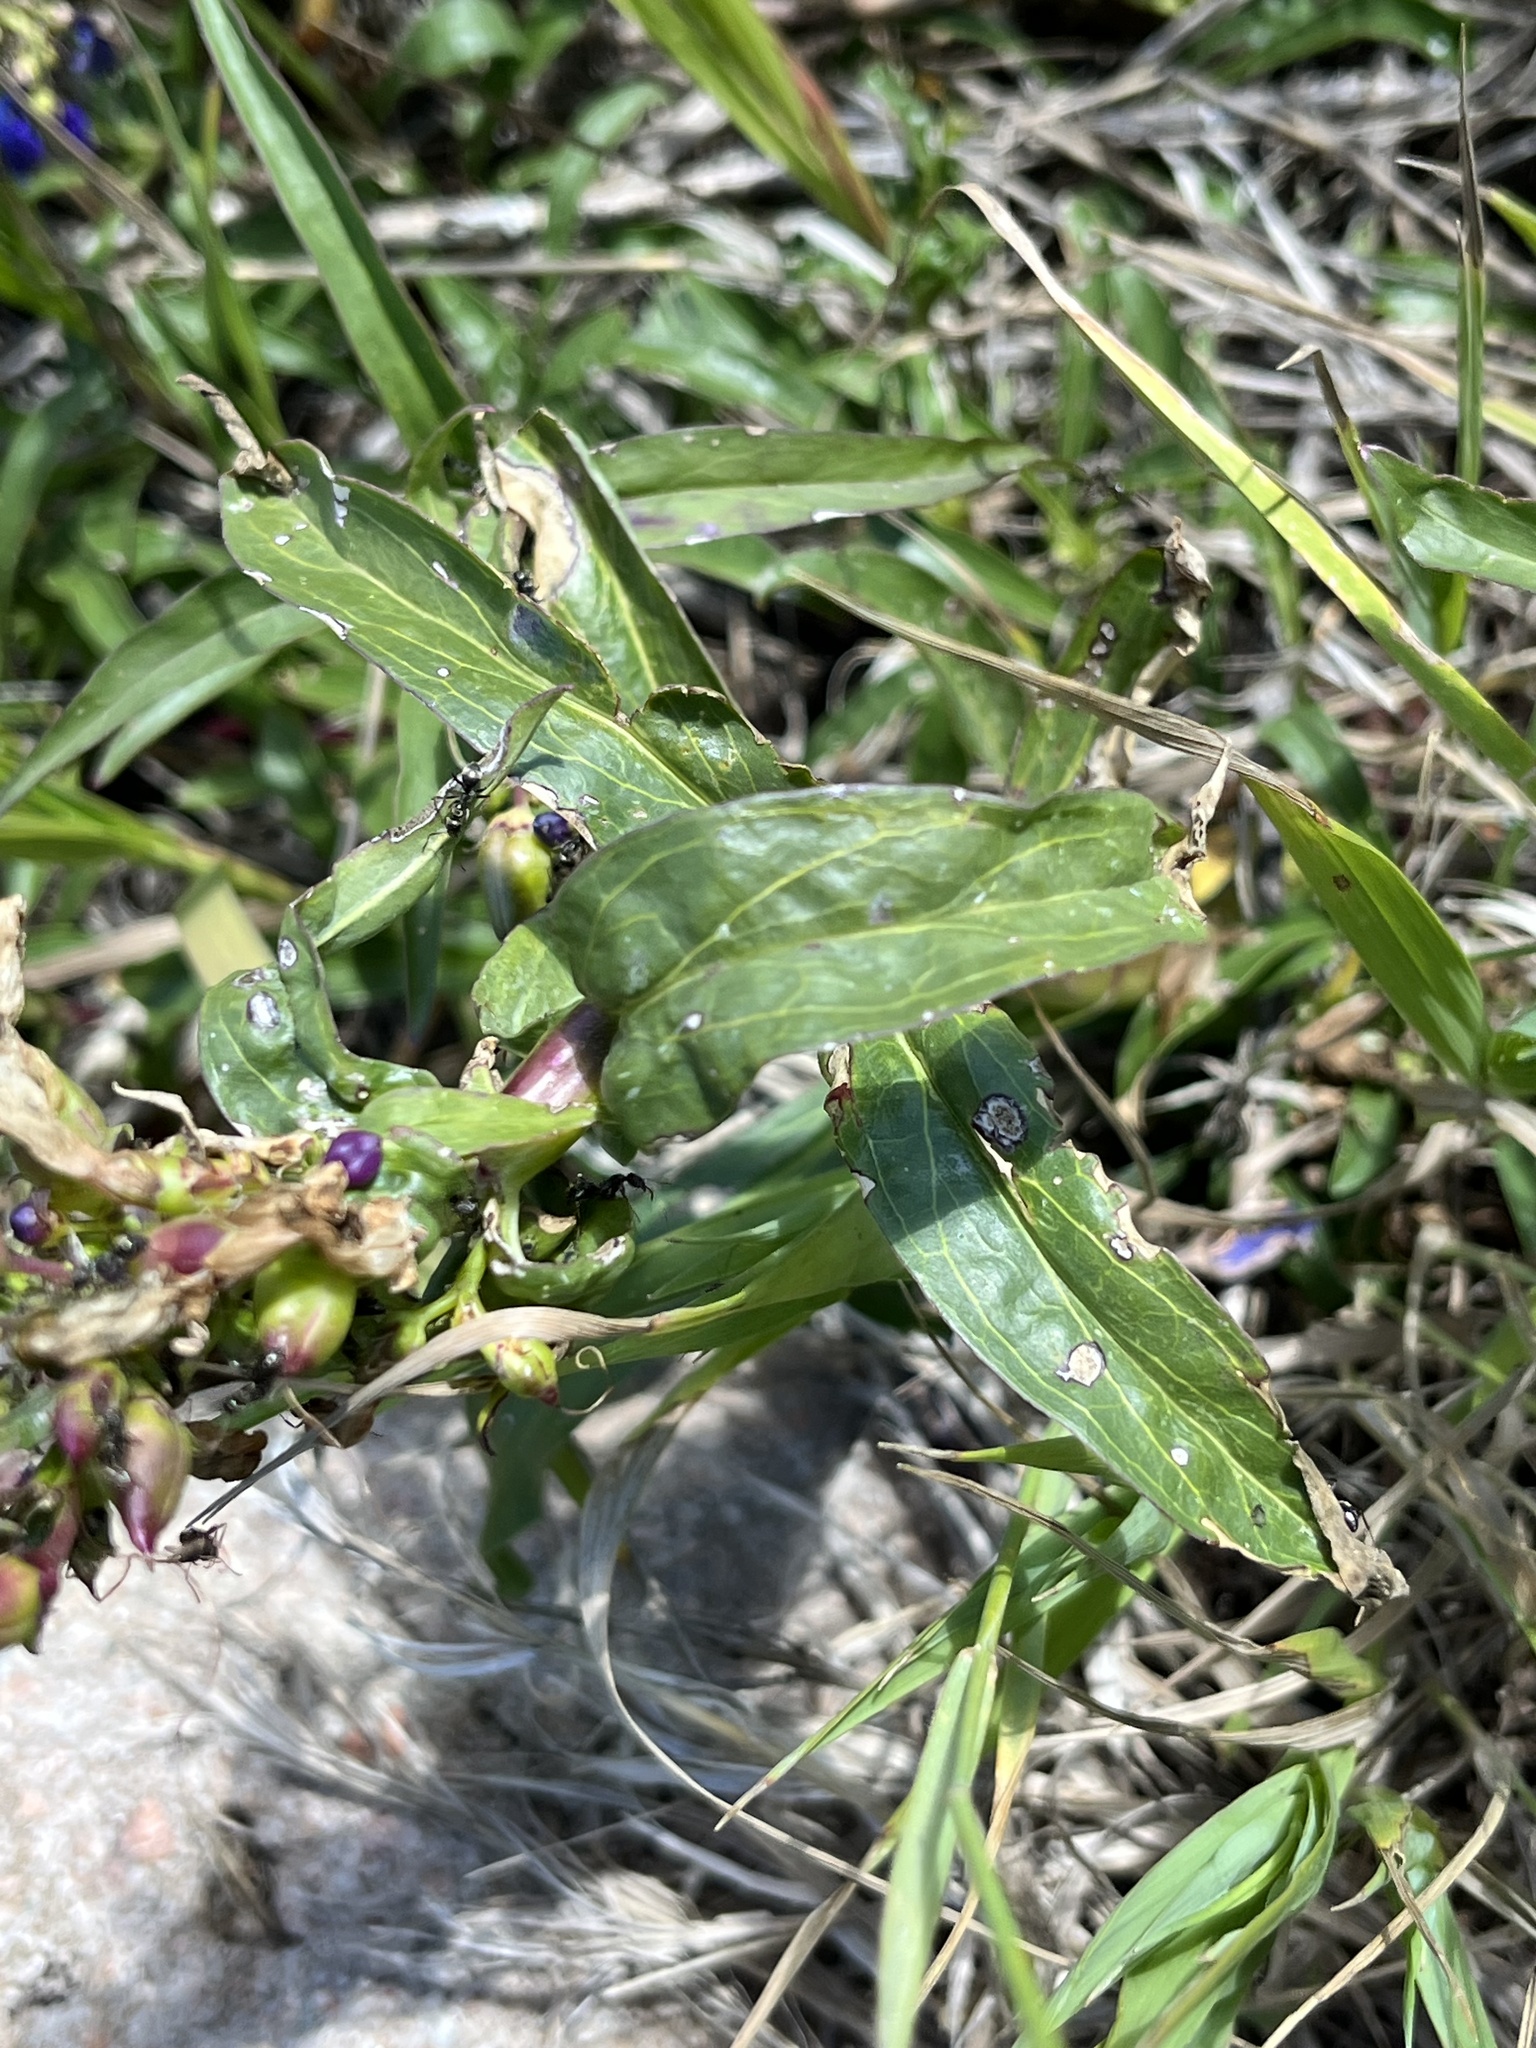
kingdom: Plantae
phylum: Tracheophyta
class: Magnoliopsida
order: Lamiales
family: Plantaginaceae
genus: Penstemon
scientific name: Penstemon strictus
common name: Rocky mountain penstemon
